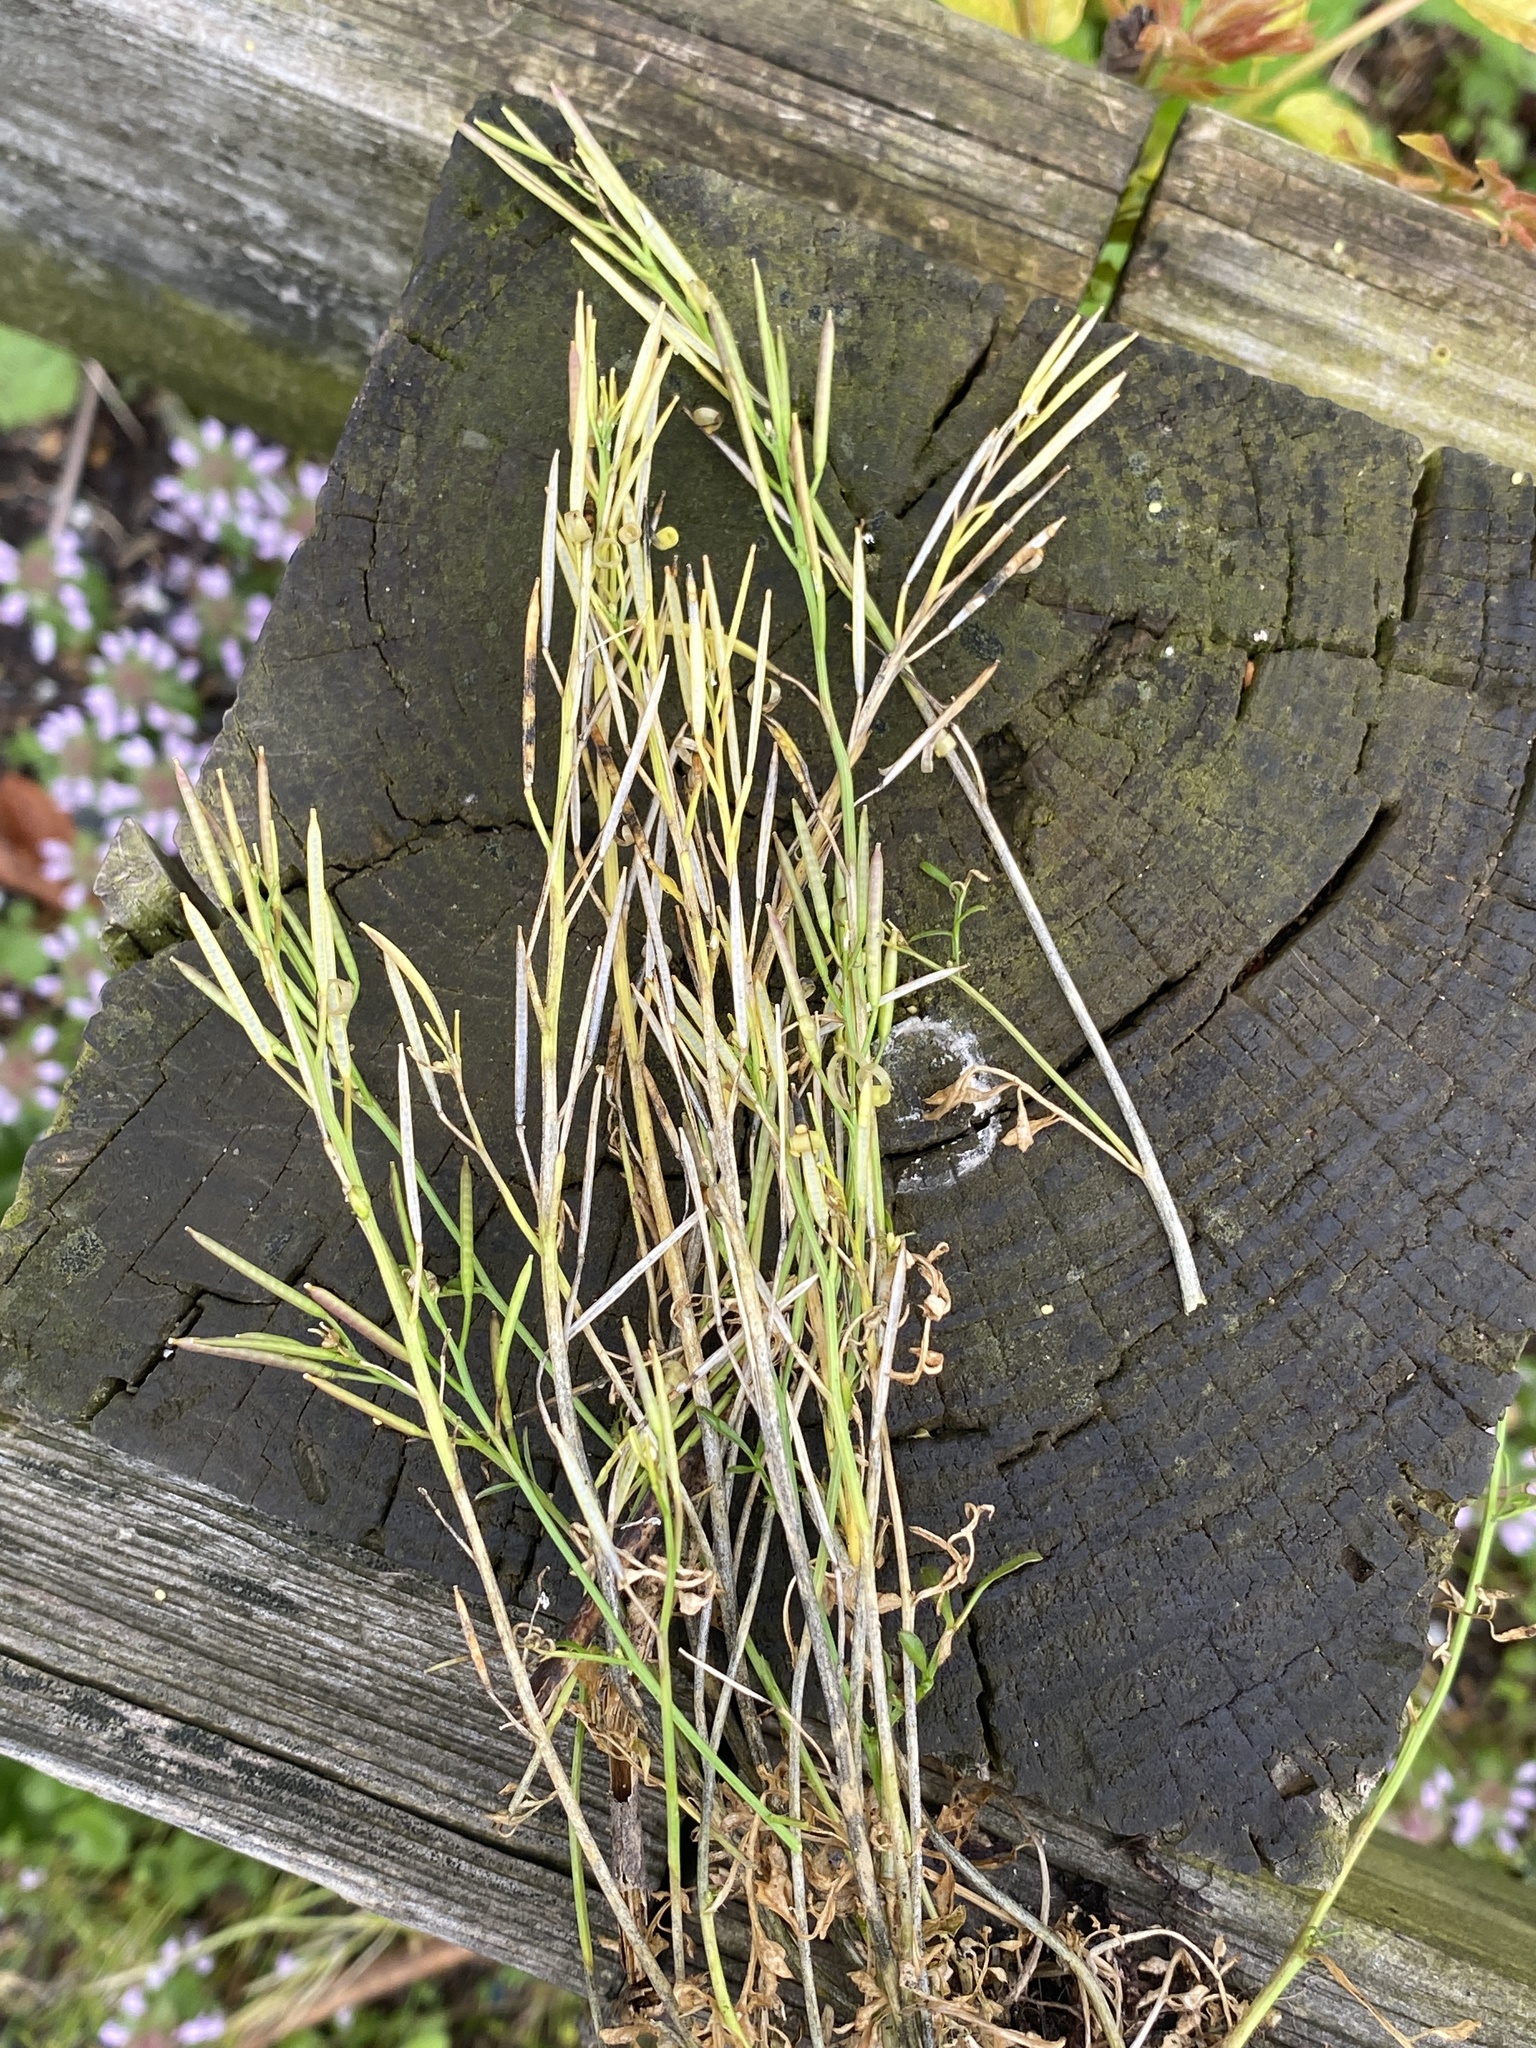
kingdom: Plantae
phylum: Tracheophyta
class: Magnoliopsida
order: Brassicales
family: Brassicaceae
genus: Cardamine
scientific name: Cardamine hirsuta
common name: Hairy bittercress
